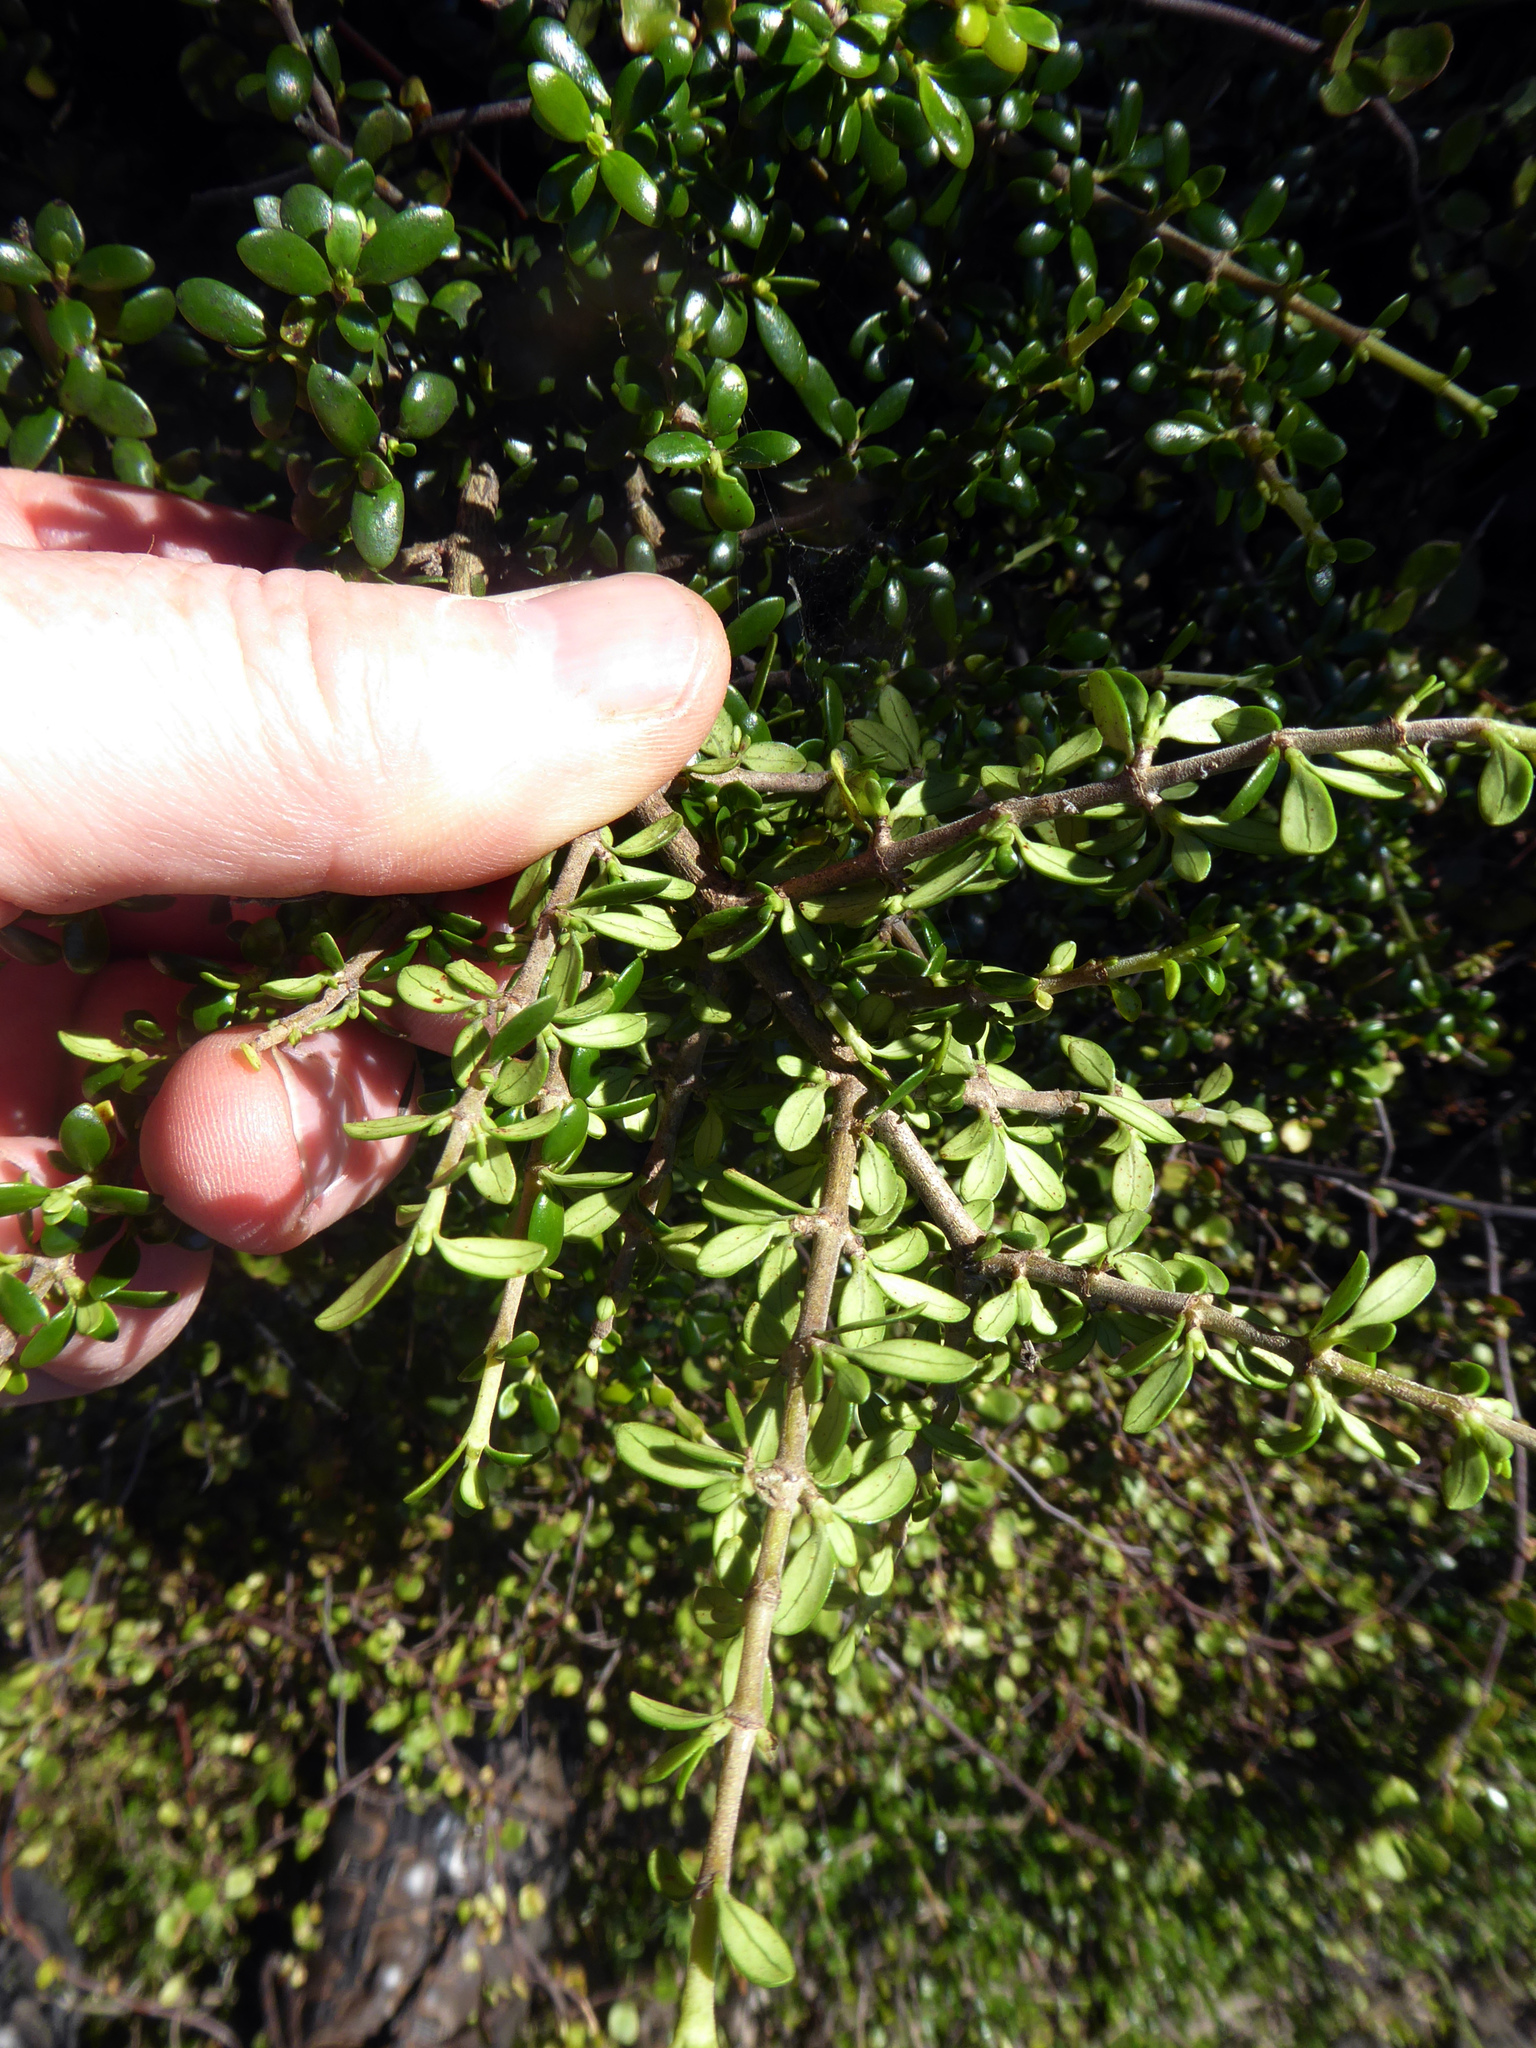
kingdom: Plantae
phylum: Tracheophyta
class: Magnoliopsida
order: Gentianales
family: Rubiaceae
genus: Coprosma
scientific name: Coprosma propinqua
